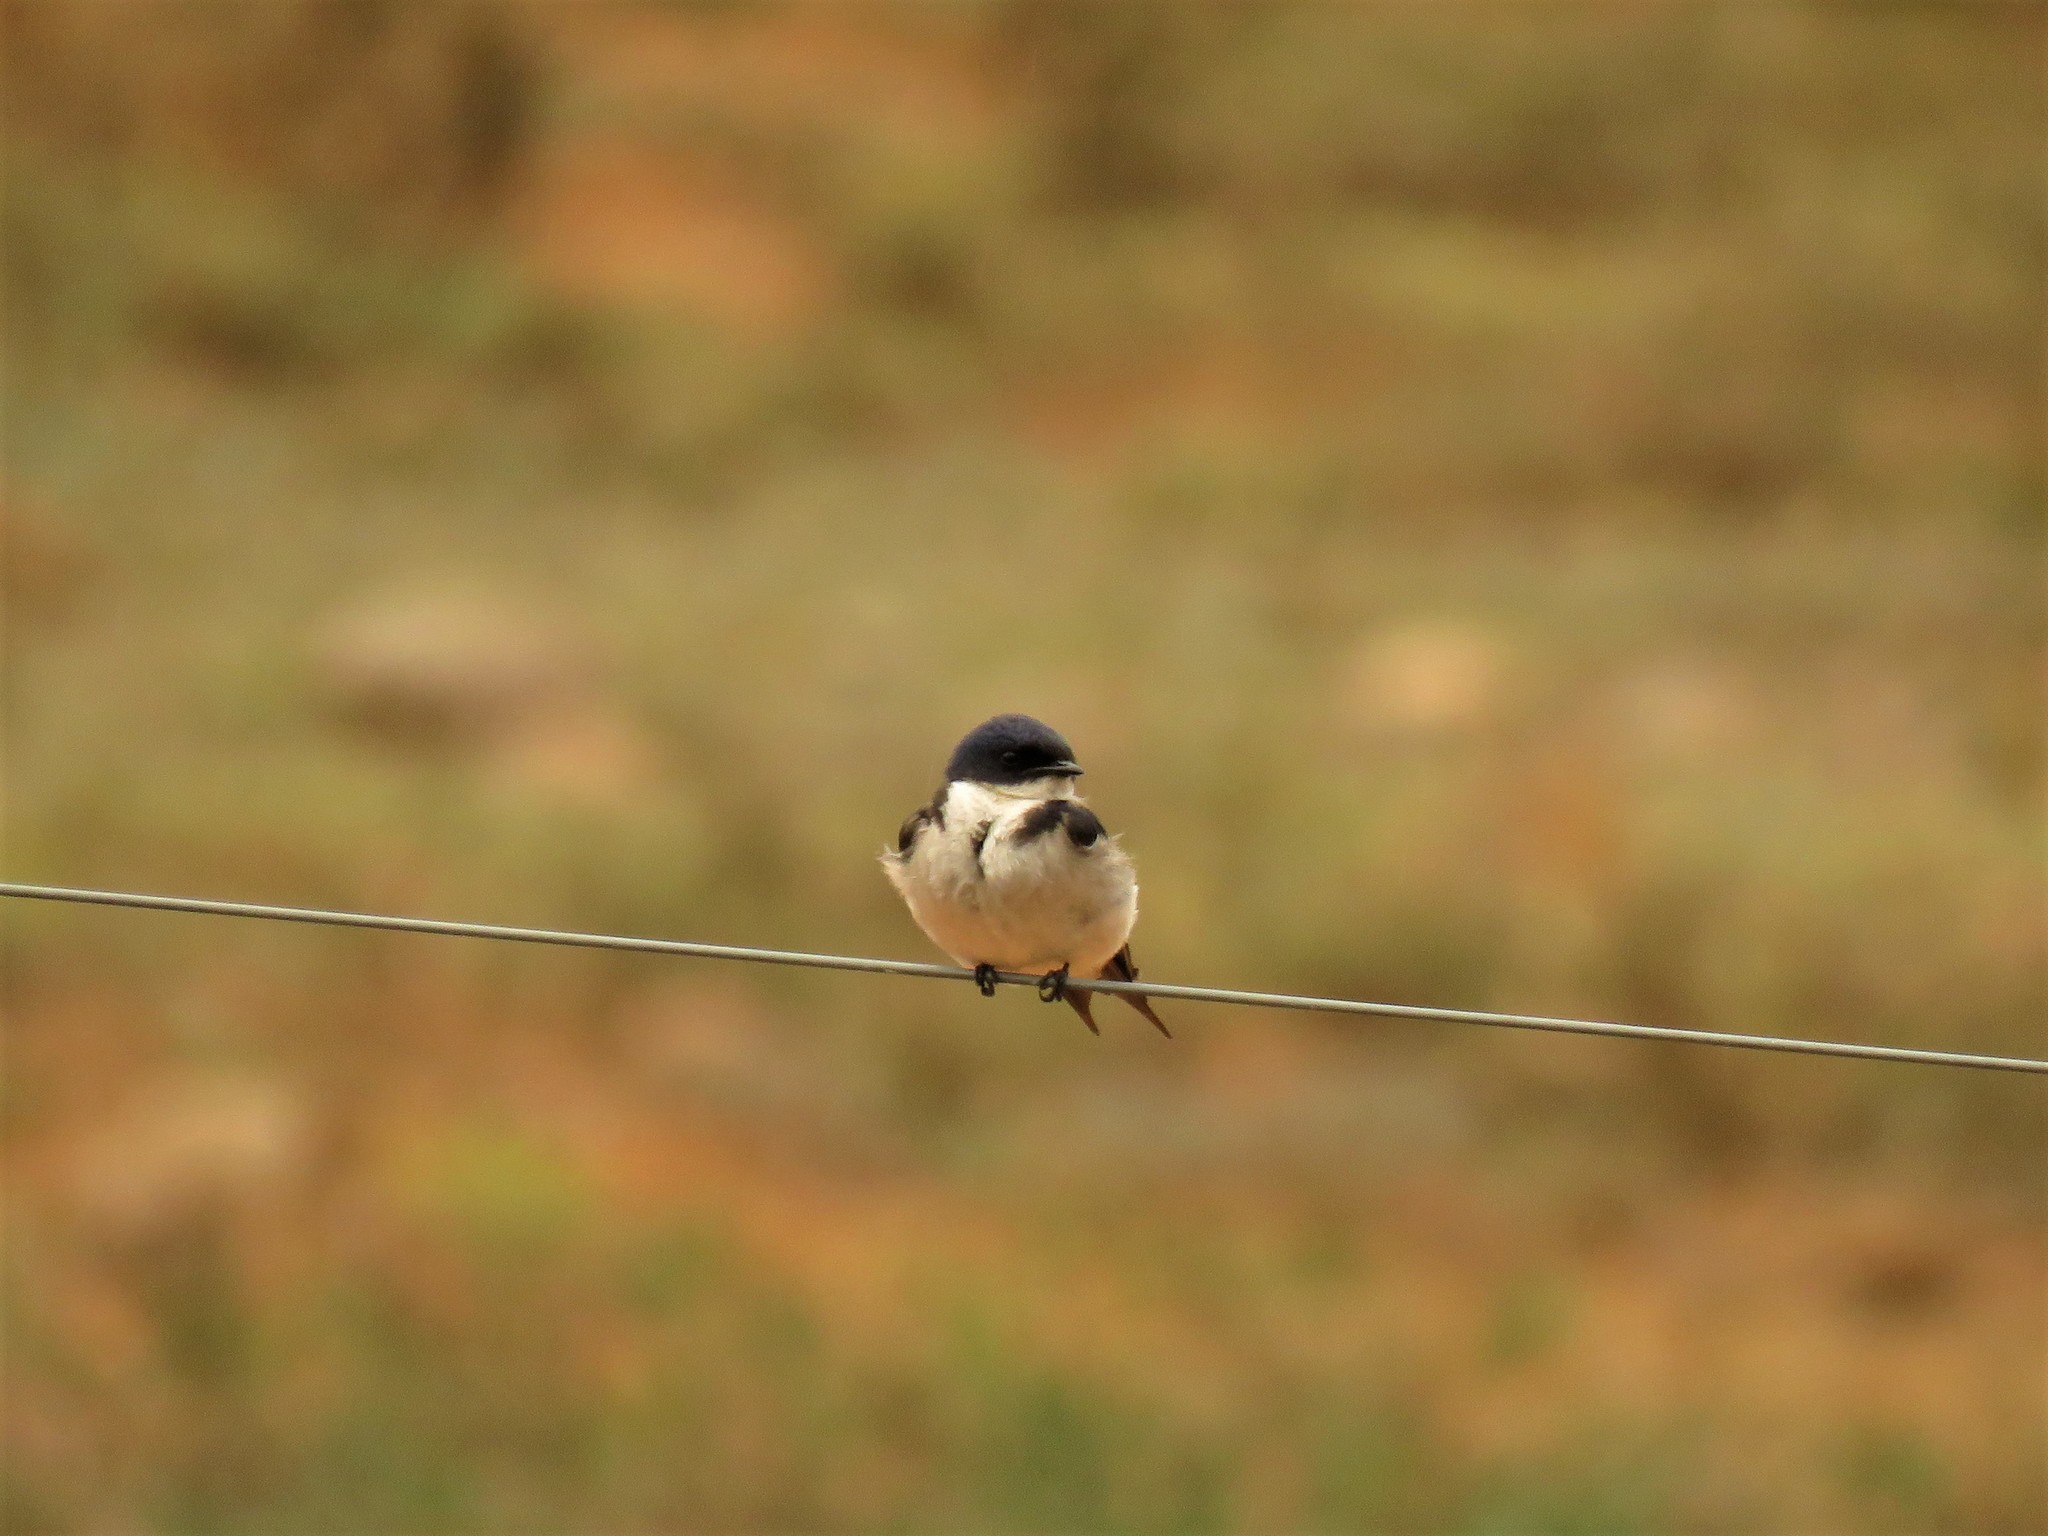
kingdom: Animalia
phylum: Chordata
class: Aves
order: Passeriformes
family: Hirundinidae
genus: Hirundo
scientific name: Hirundo dimidiata
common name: Pearl-breasted swallow
